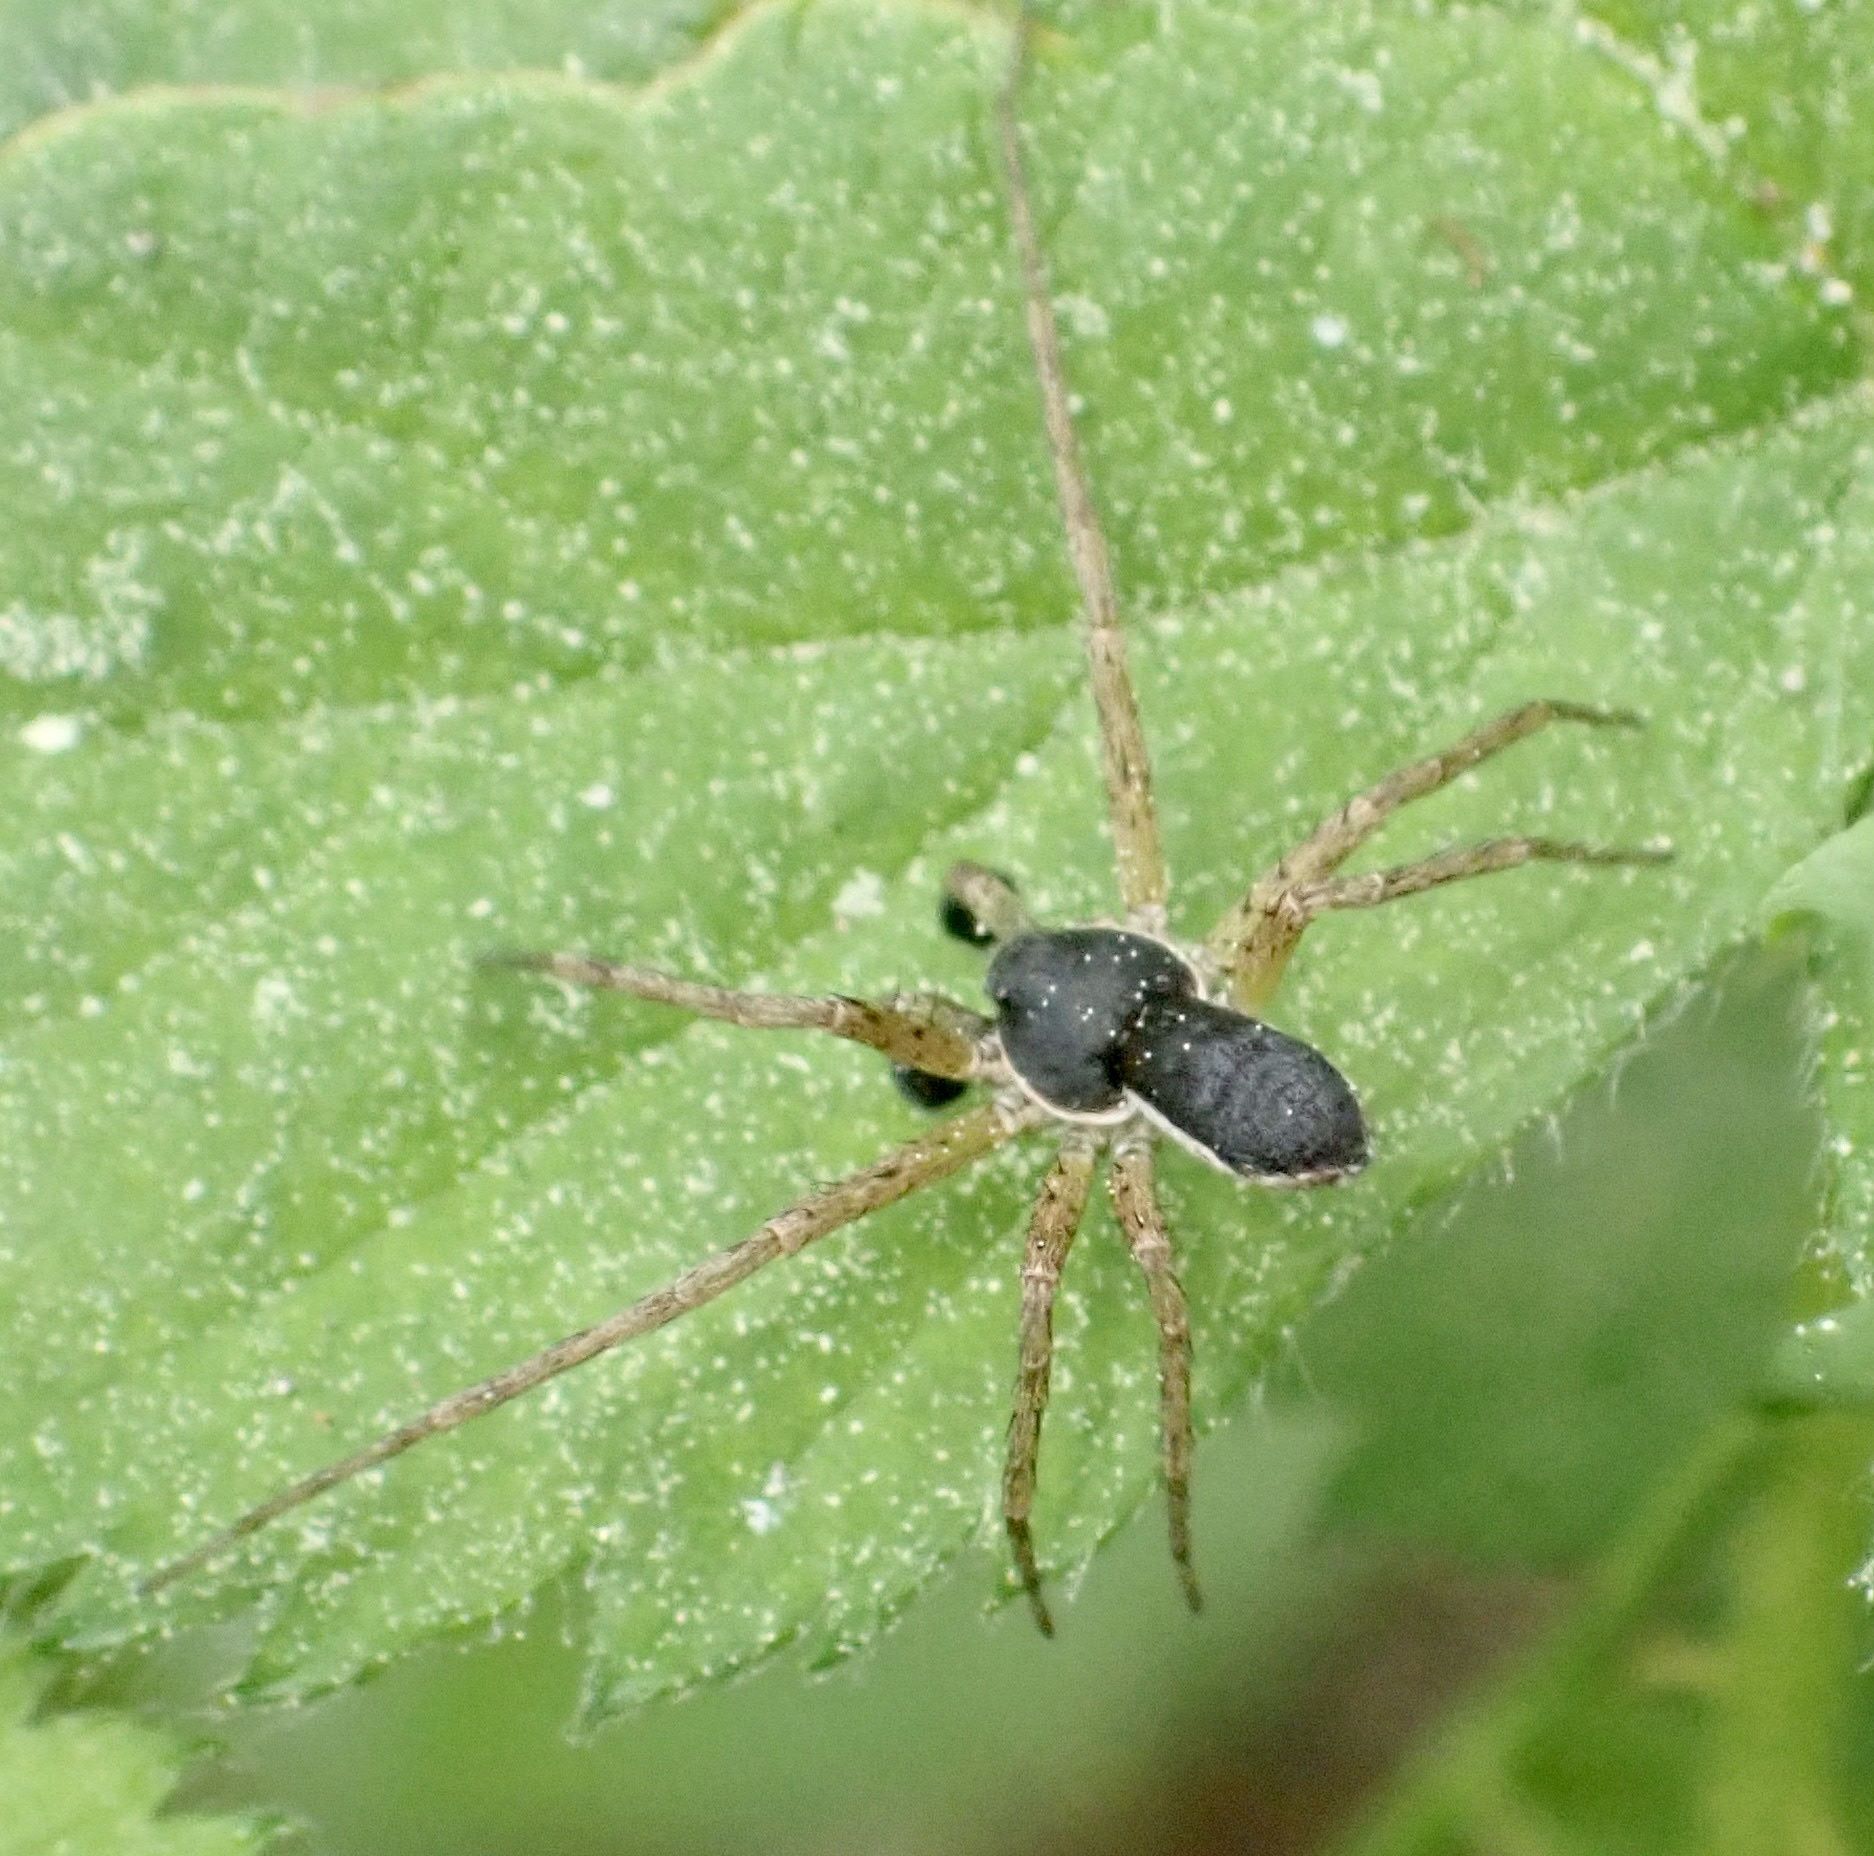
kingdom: Animalia
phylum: Arthropoda
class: Arachnida
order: Araneae
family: Philodromidae
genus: Philodromus
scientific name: Philodromus dispar
